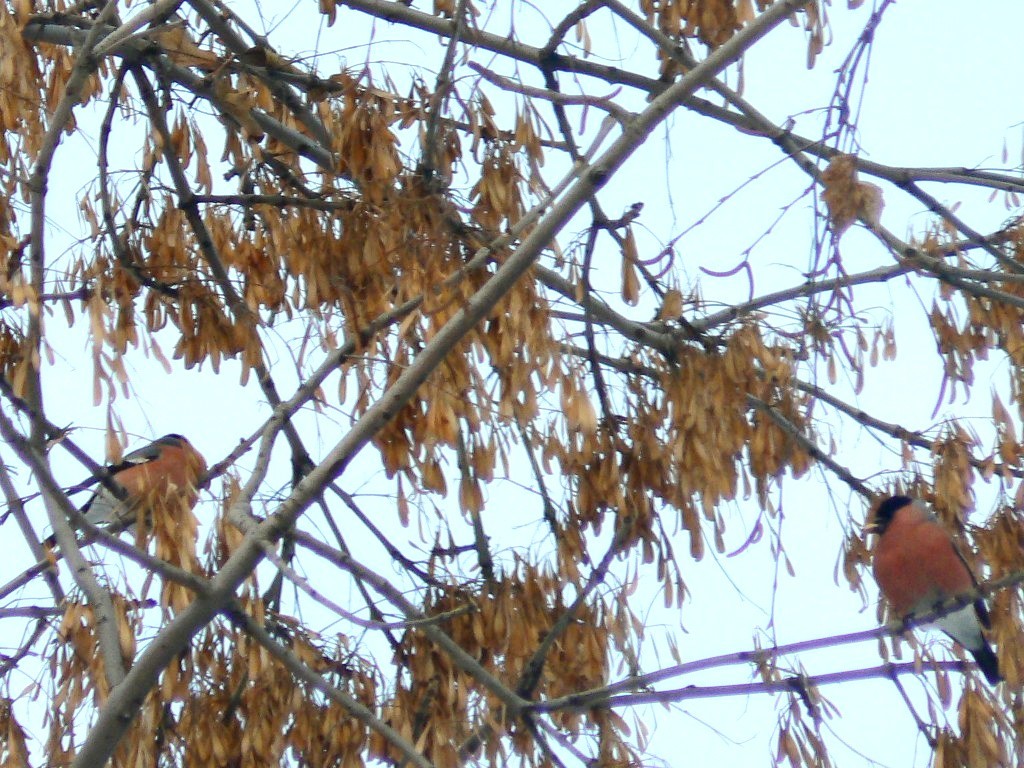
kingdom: Animalia
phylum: Chordata
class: Aves
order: Passeriformes
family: Fringillidae
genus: Pyrrhula
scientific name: Pyrrhula pyrrhula
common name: Eurasian bullfinch
